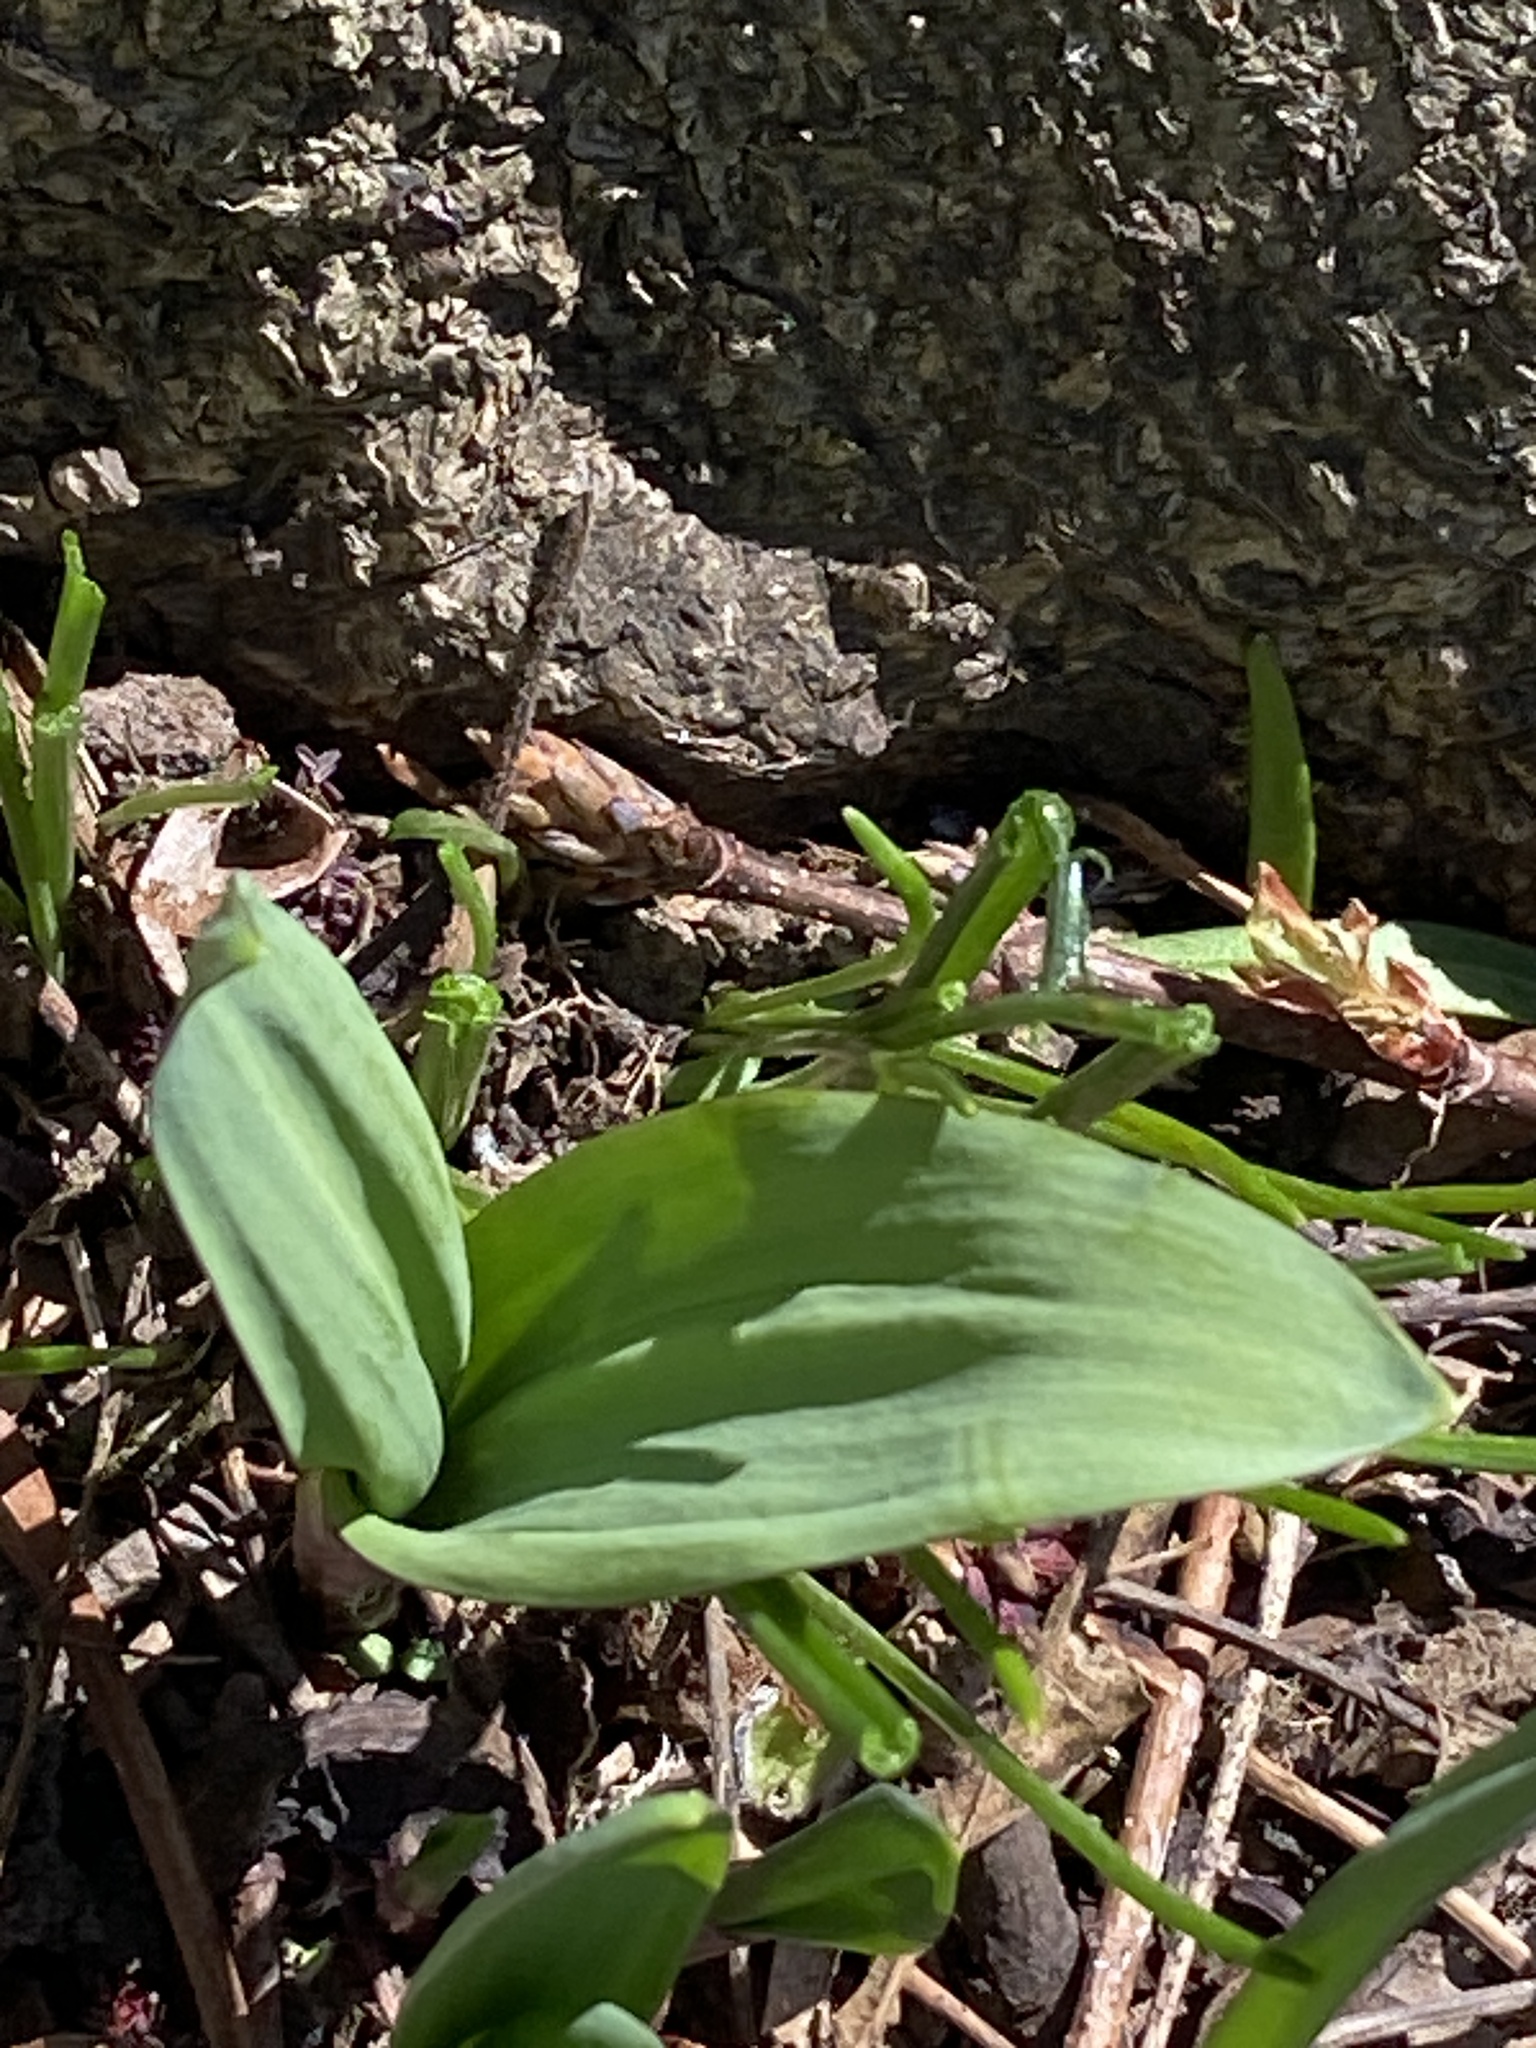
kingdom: Plantae
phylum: Tracheophyta
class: Liliopsida
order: Asparagales
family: Amaryllidaceae
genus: Allium
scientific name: Allium tricoccum
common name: Ramp
